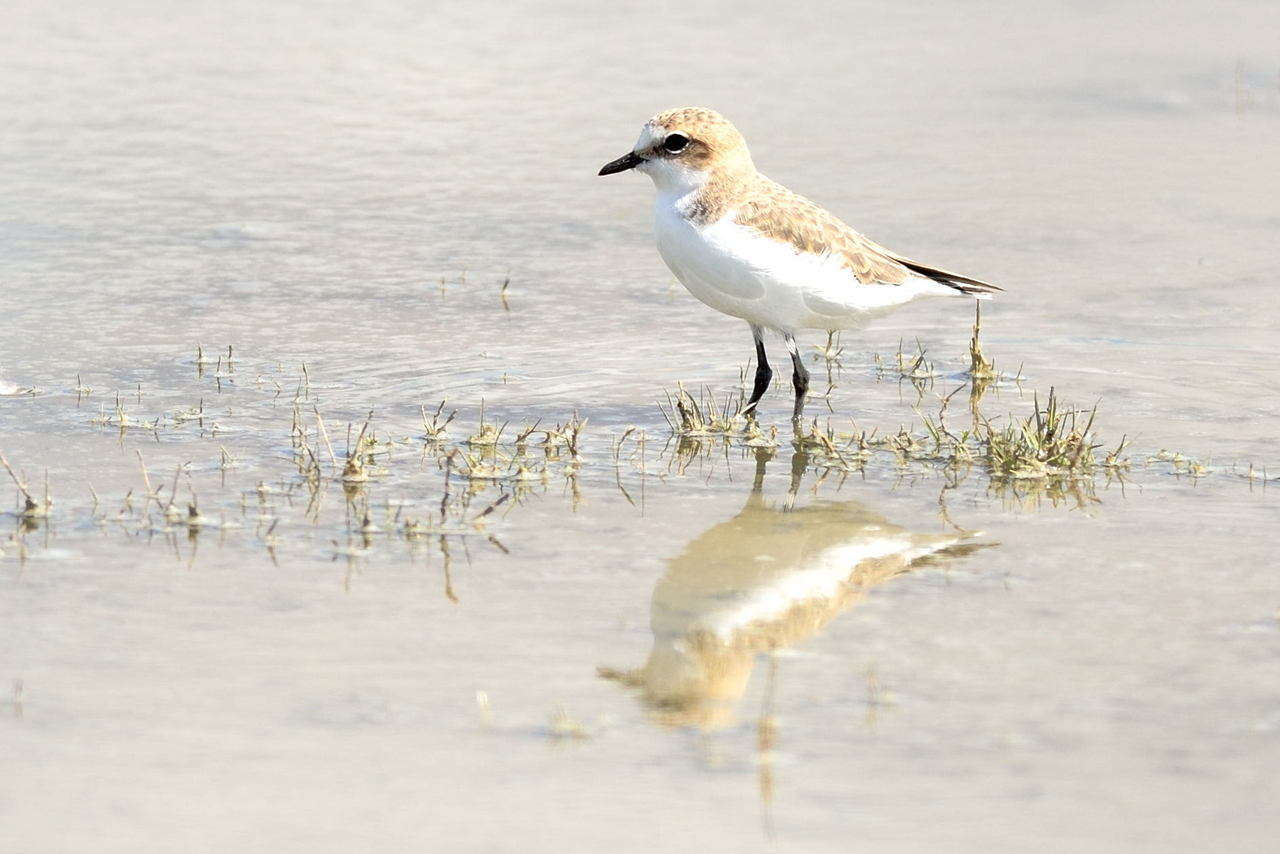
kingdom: Animalia
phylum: Chordata
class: Aves
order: Charadriiformes
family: Charadriidae
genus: Anarhynchus
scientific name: Anarhynchus
